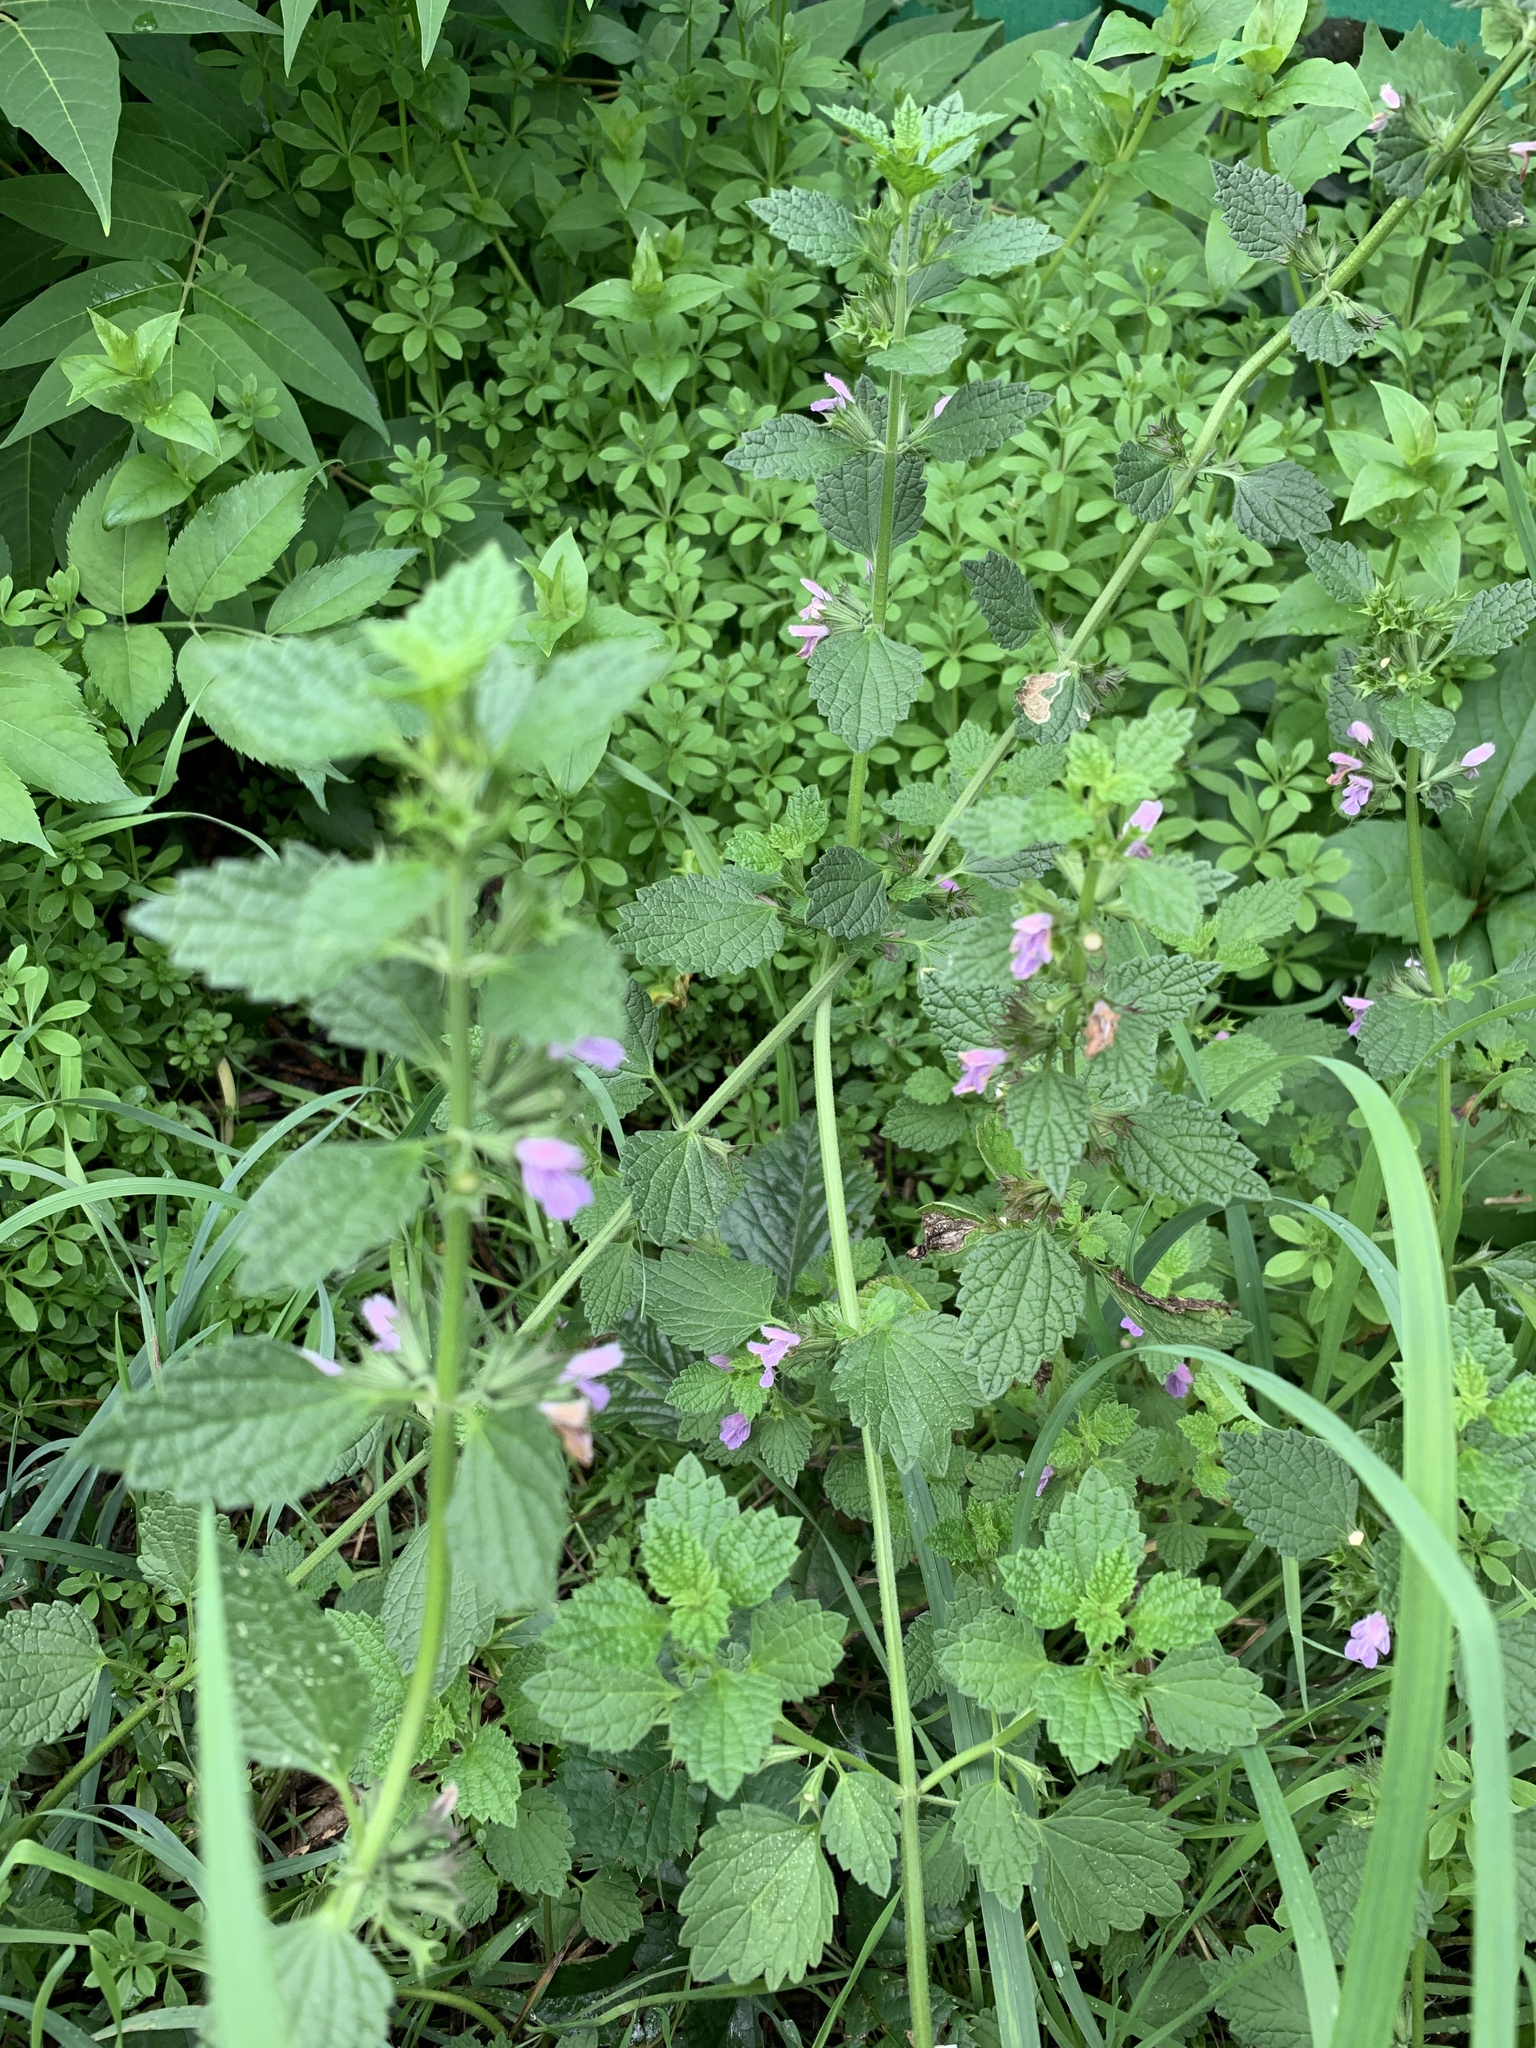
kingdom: Plantae
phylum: Tracheophyta
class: Magnoliopsida
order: Lamiales
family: Lamiaceae
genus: Ballota
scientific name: Ballota nigra
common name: Black horehound
